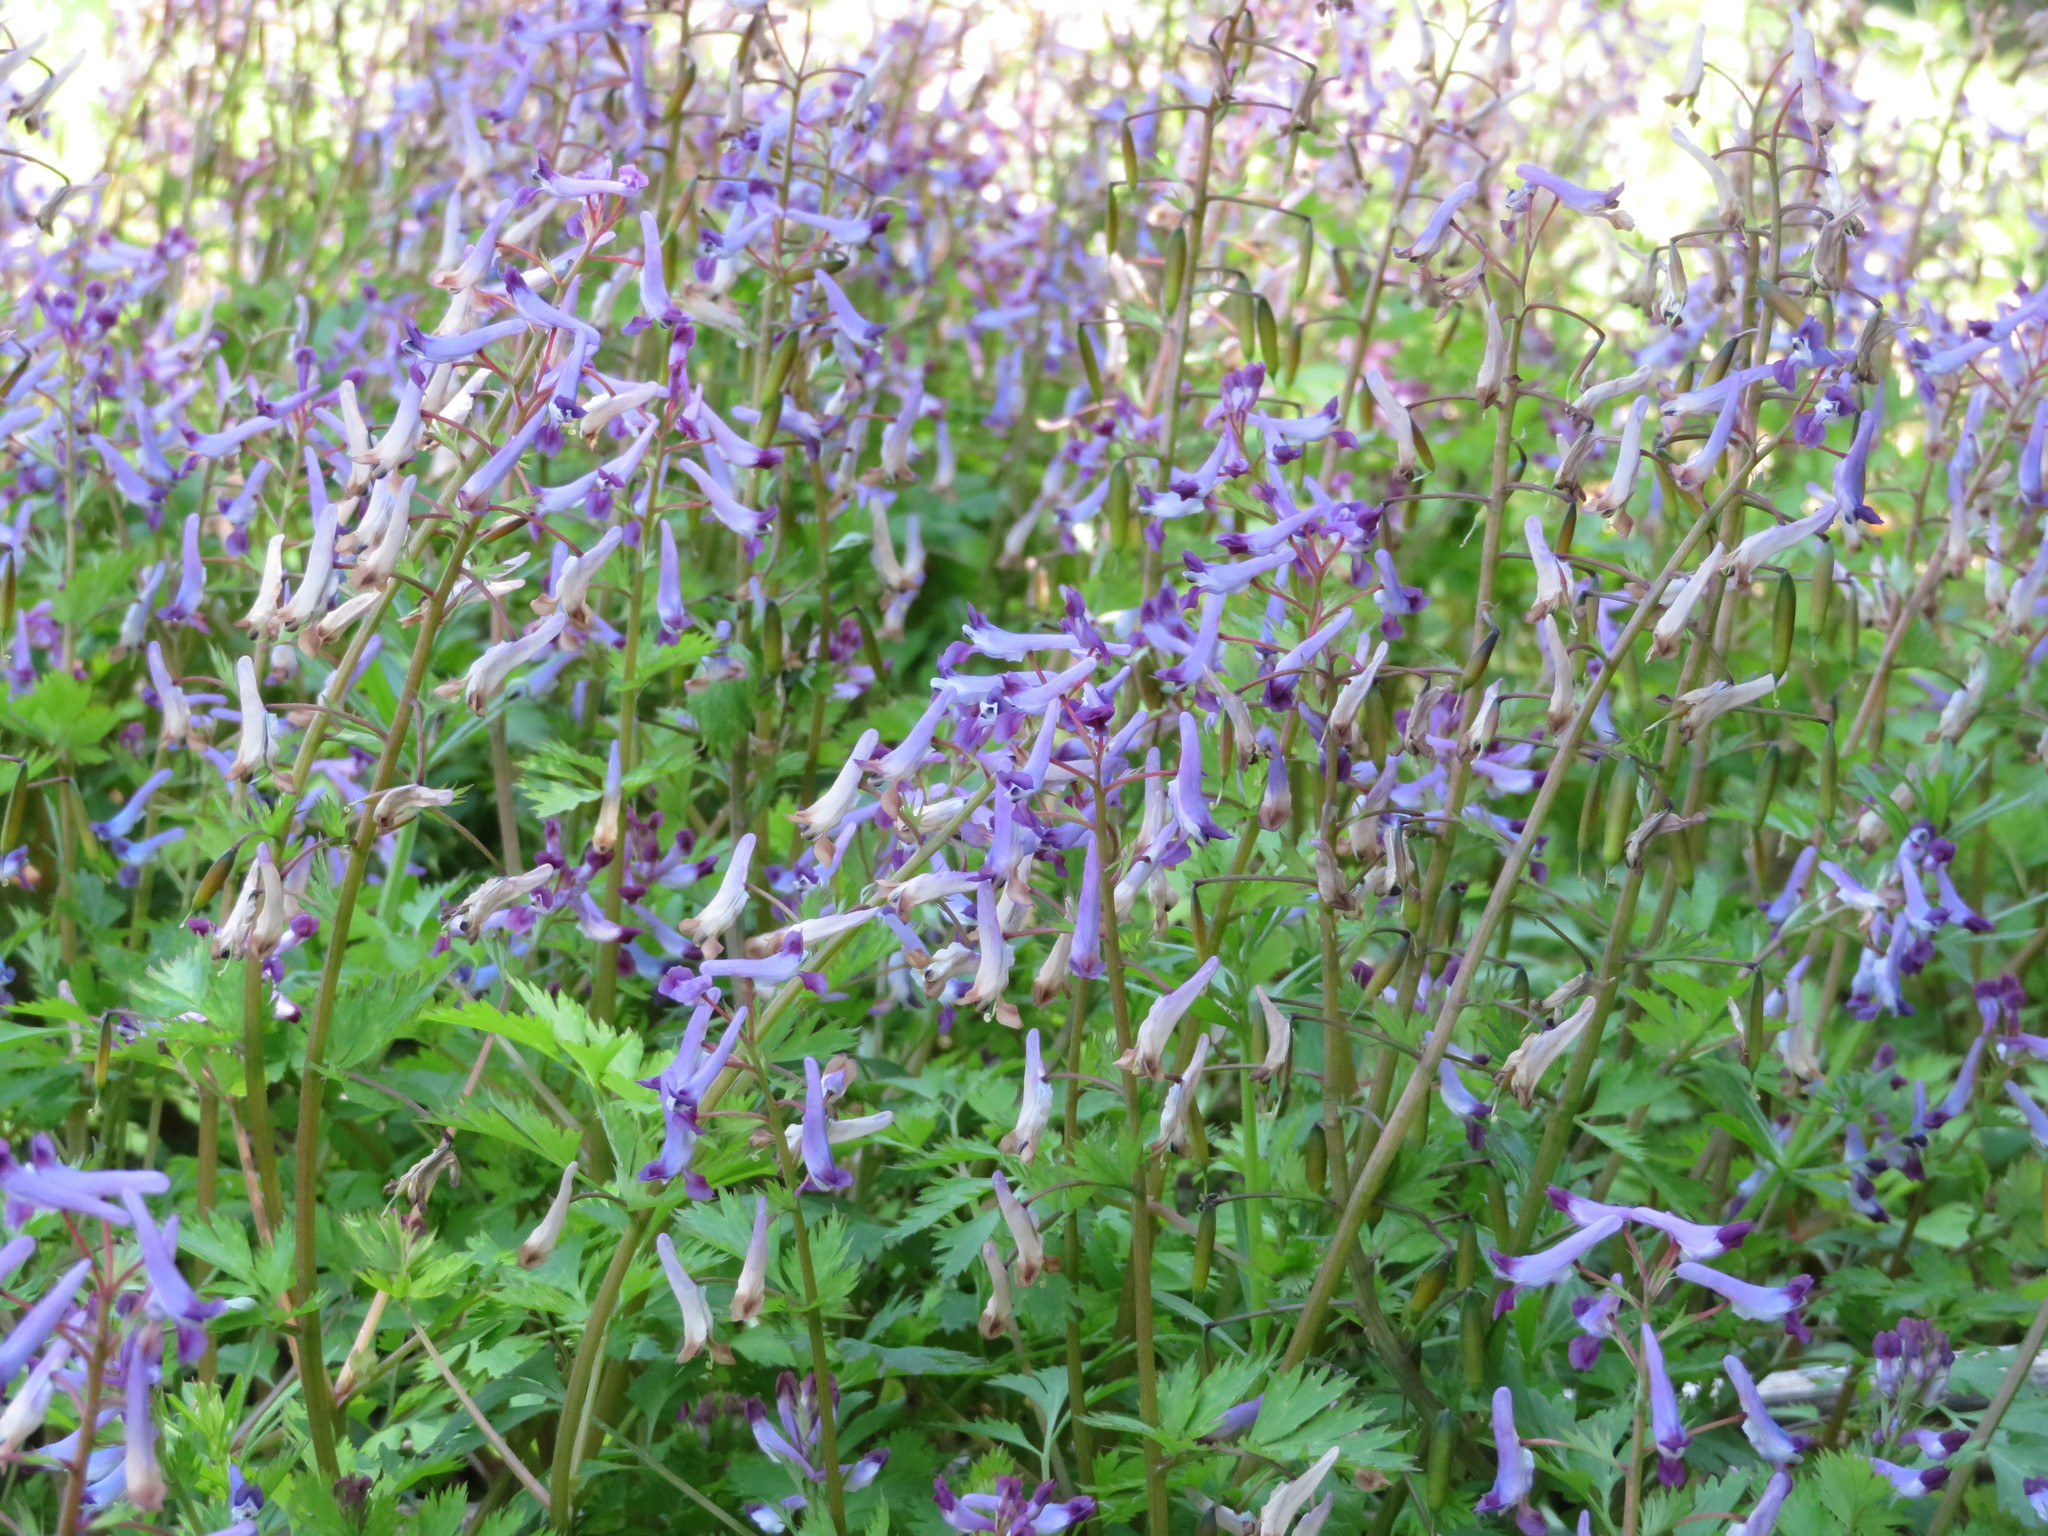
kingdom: Plantae
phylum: Tracheophyta
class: Magnoliopsida
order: Ranunculales
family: Papaveraceae
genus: Corydalis
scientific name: Corydalis incisa
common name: Incised fumewort
